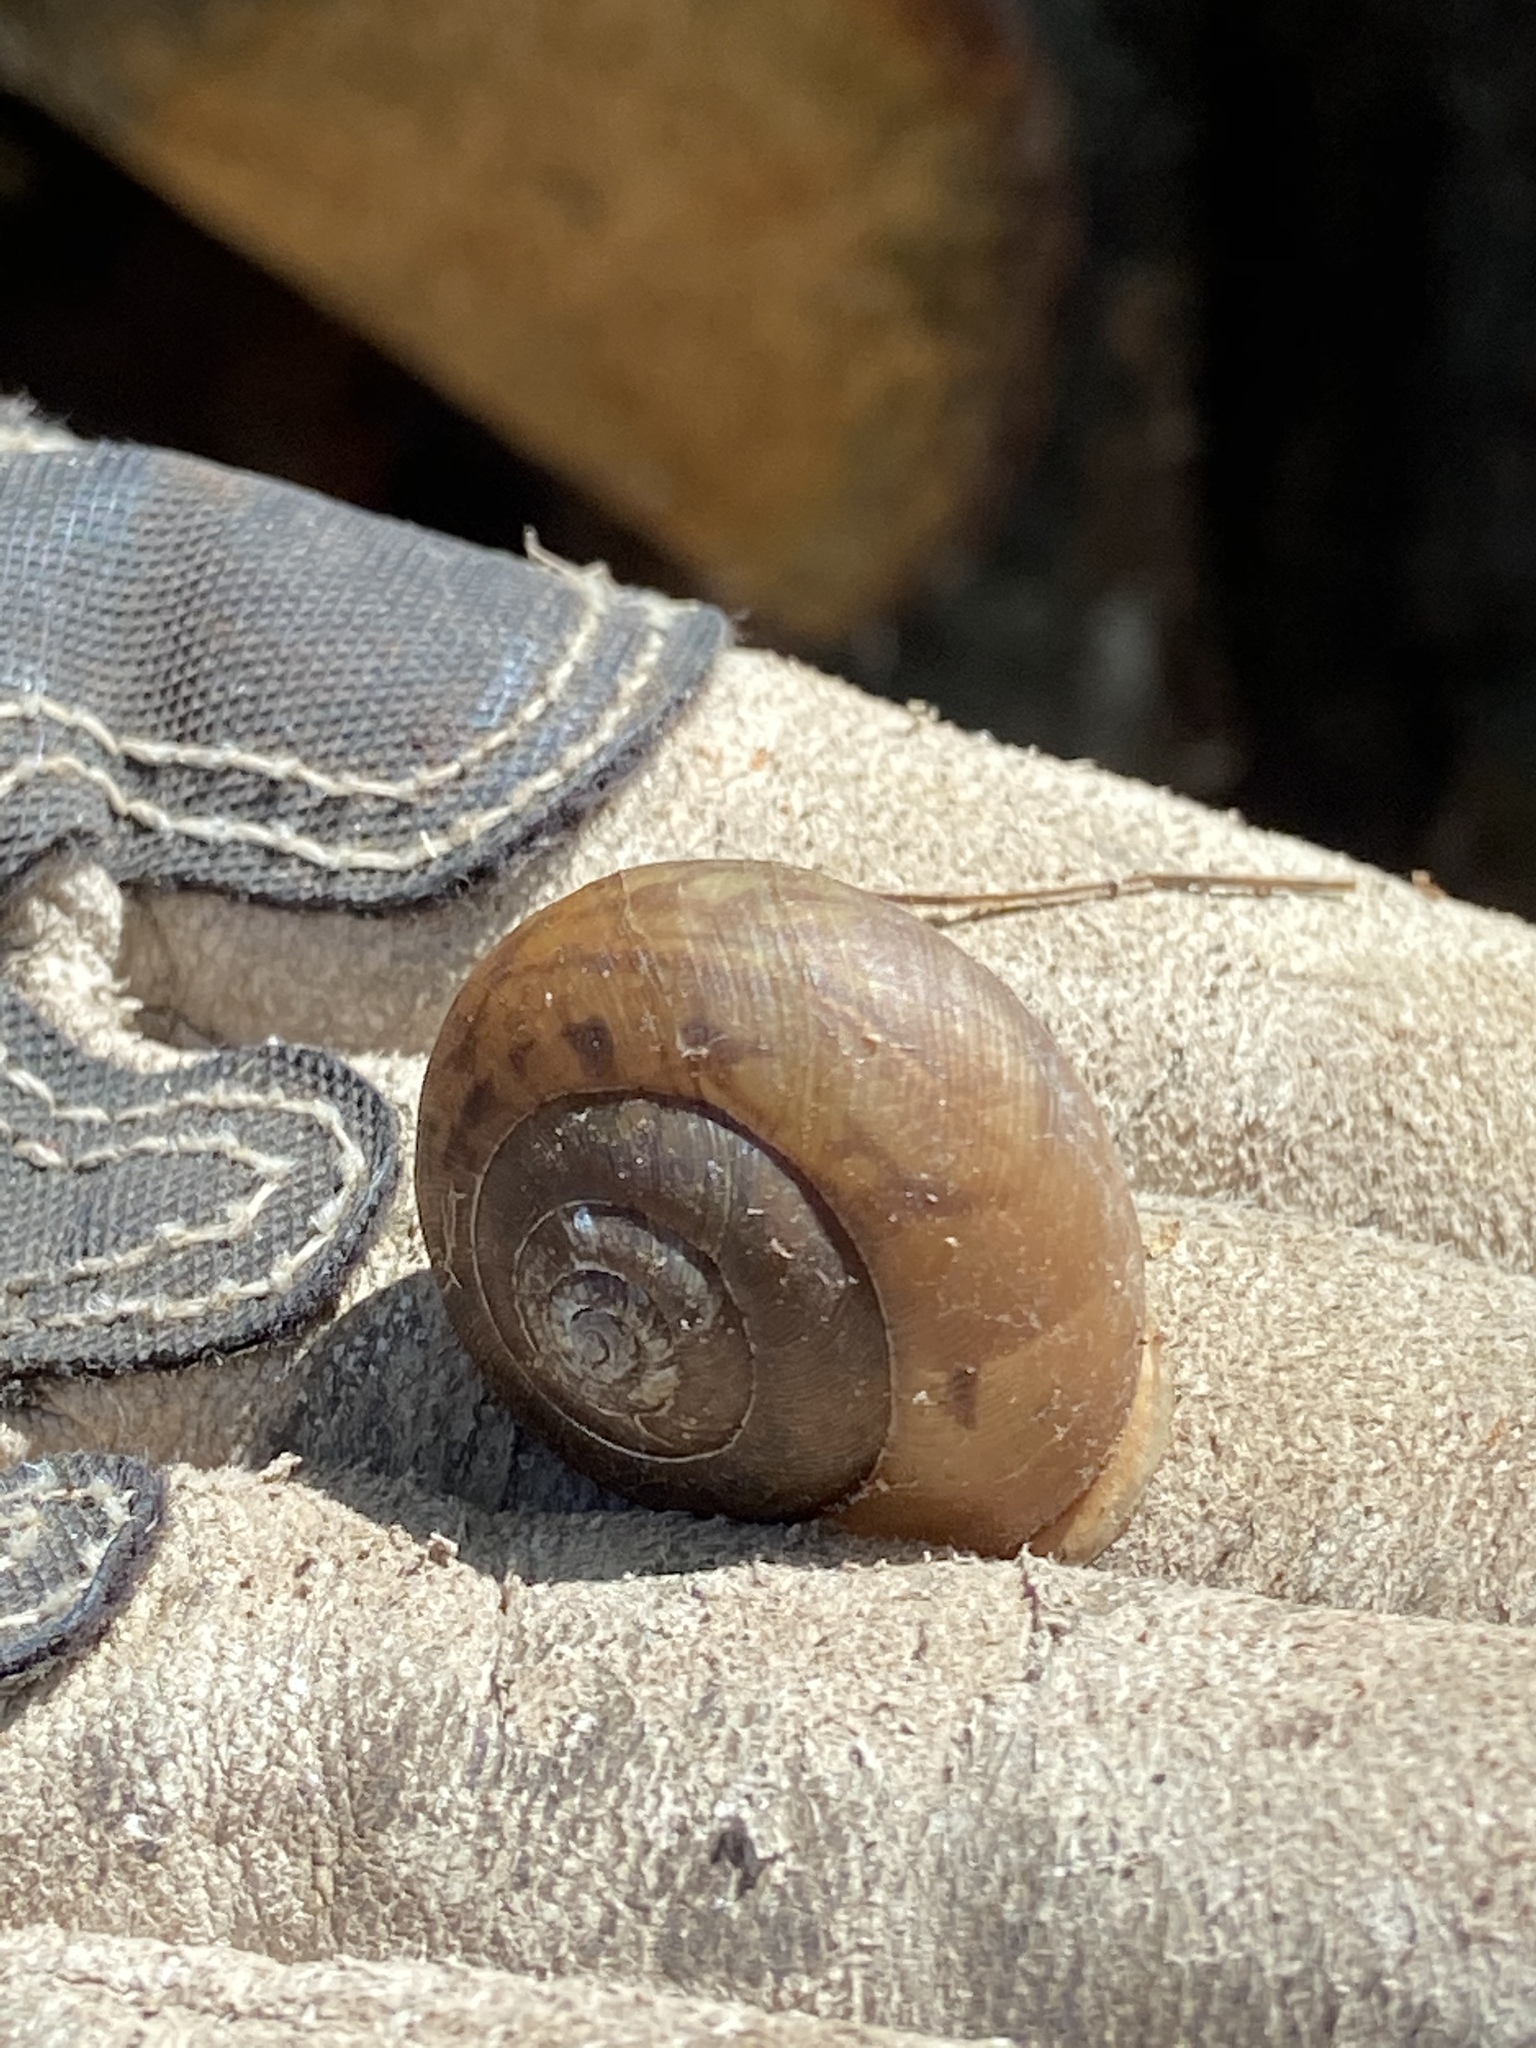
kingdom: Animalia
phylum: Mollusca
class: Gastropoda
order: Stylommatophora
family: Polygyridae
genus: Neohelix
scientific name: Neohelix albolabris
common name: Eastern whitelip
